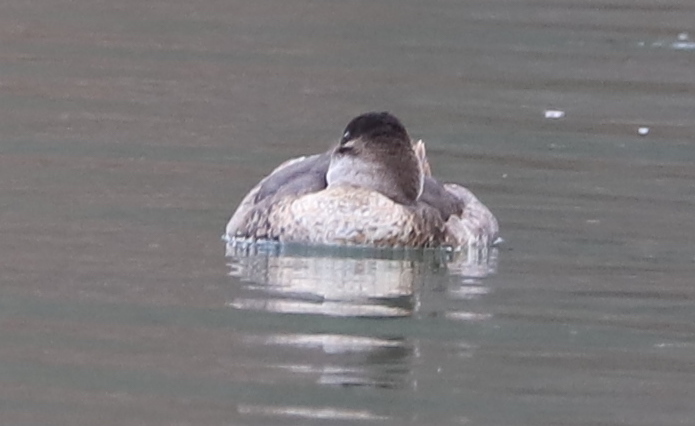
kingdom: Animalia
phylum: Chordata
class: Aves
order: Anseriformes
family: Anatidae
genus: Oxyura
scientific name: Oxyura jamaicensis
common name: Ruddy duck
